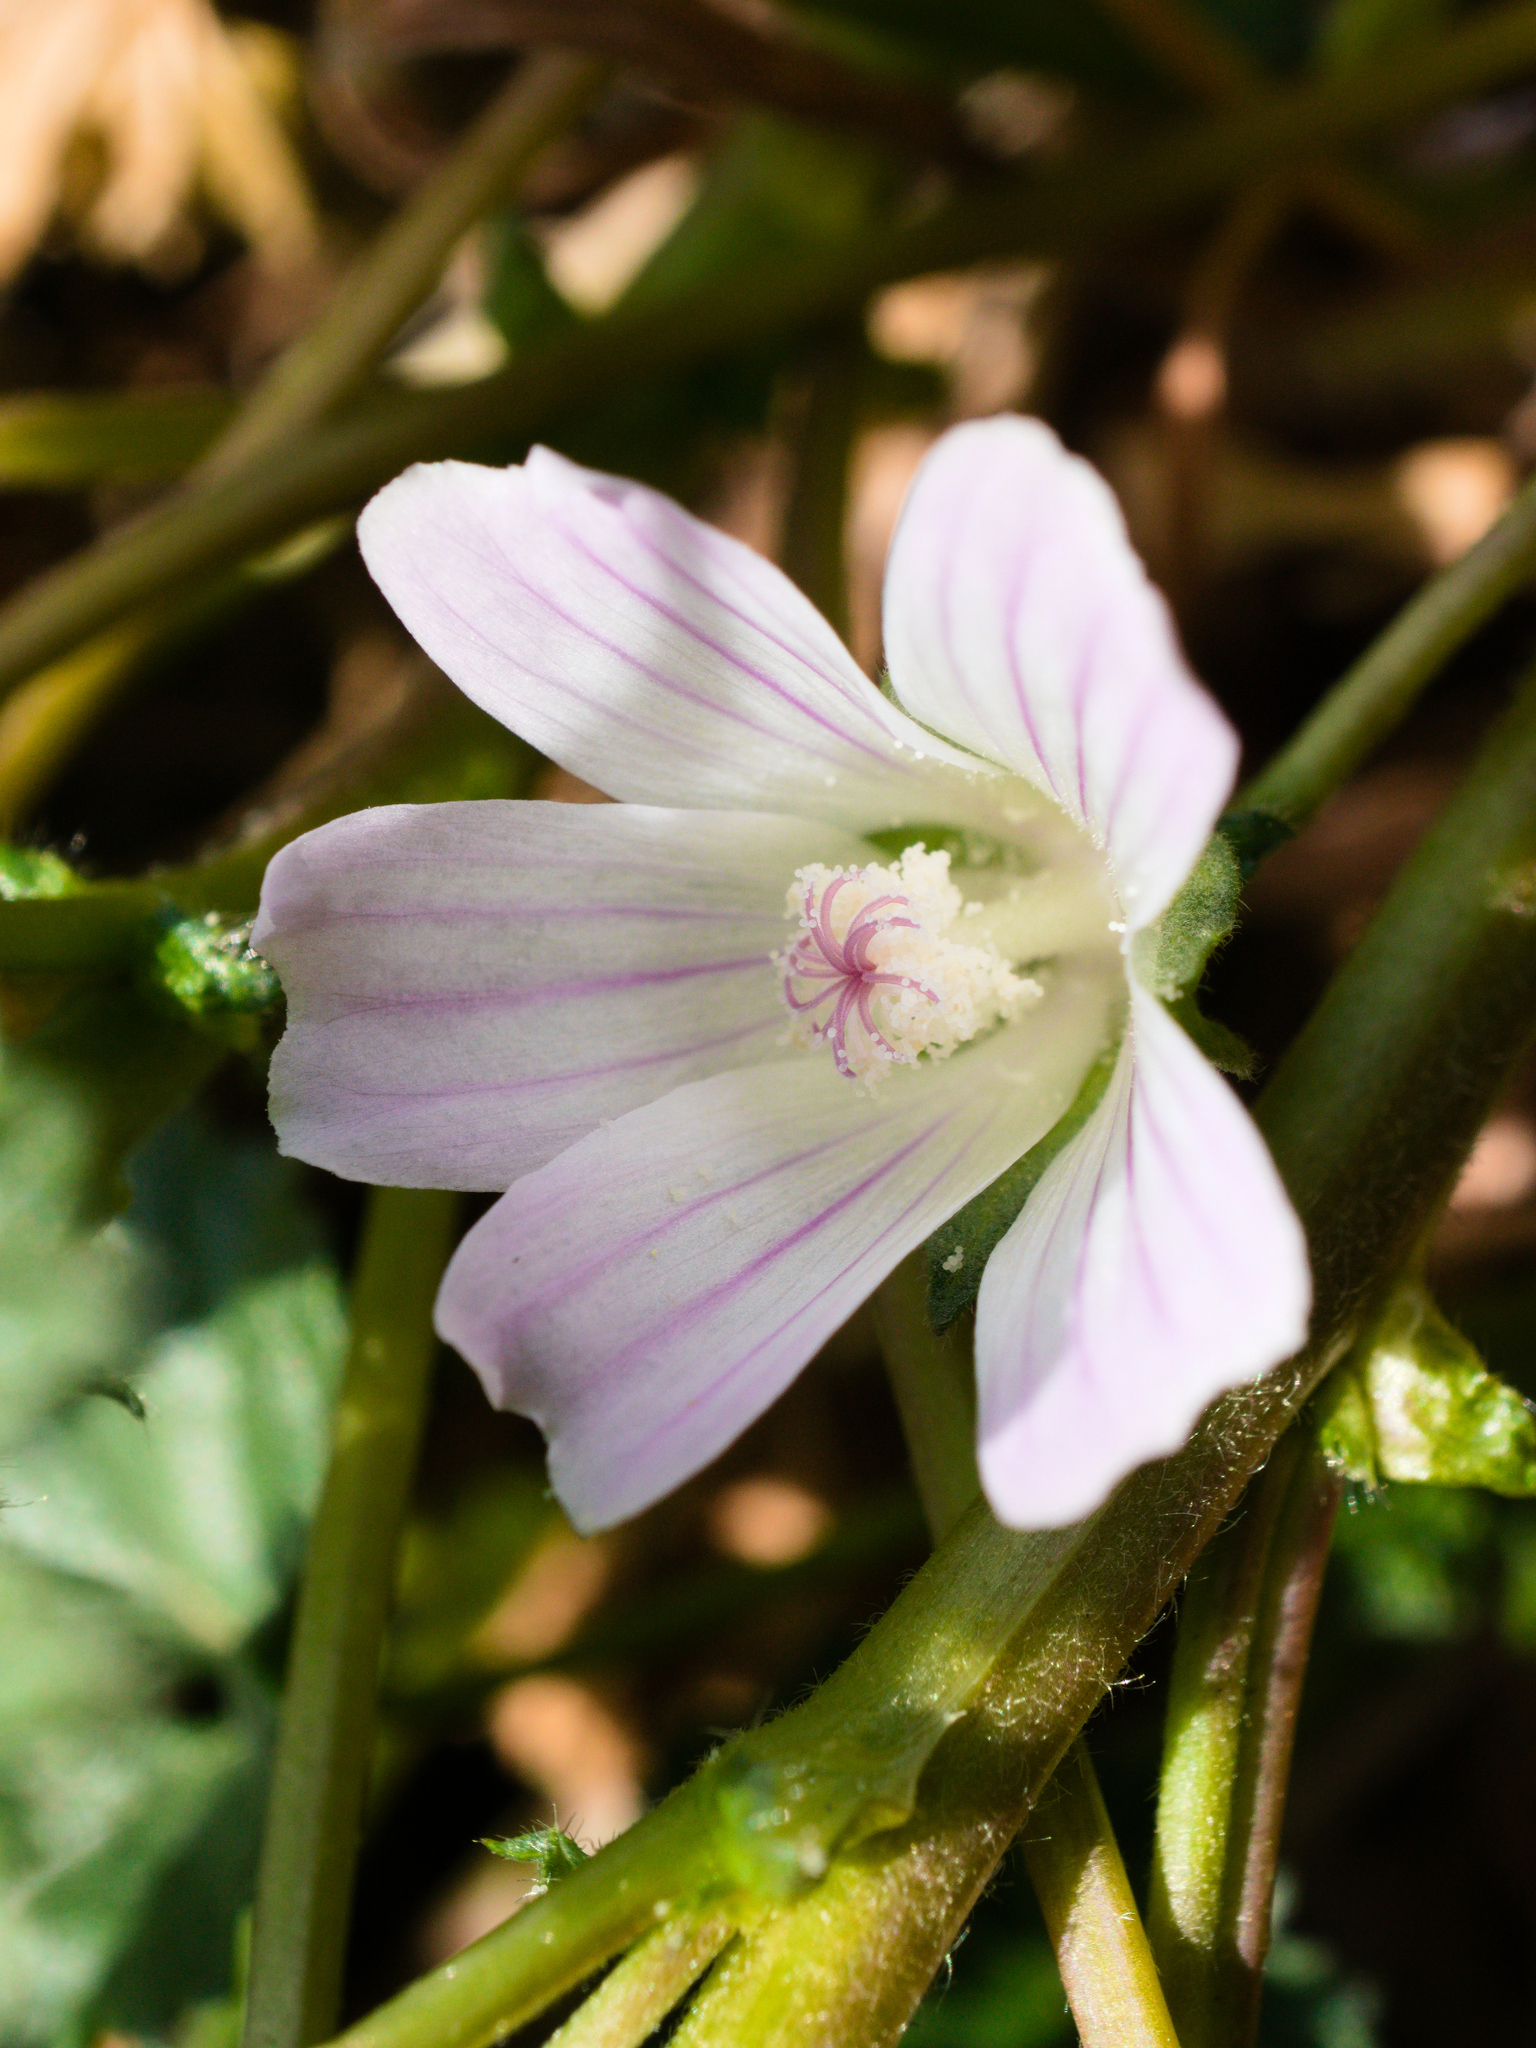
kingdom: Plantae
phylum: Tracheophyta
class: Magnoliopsida
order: Malvales
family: Malvaceae
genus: Malva
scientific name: Malva neglecta
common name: Common mallow
